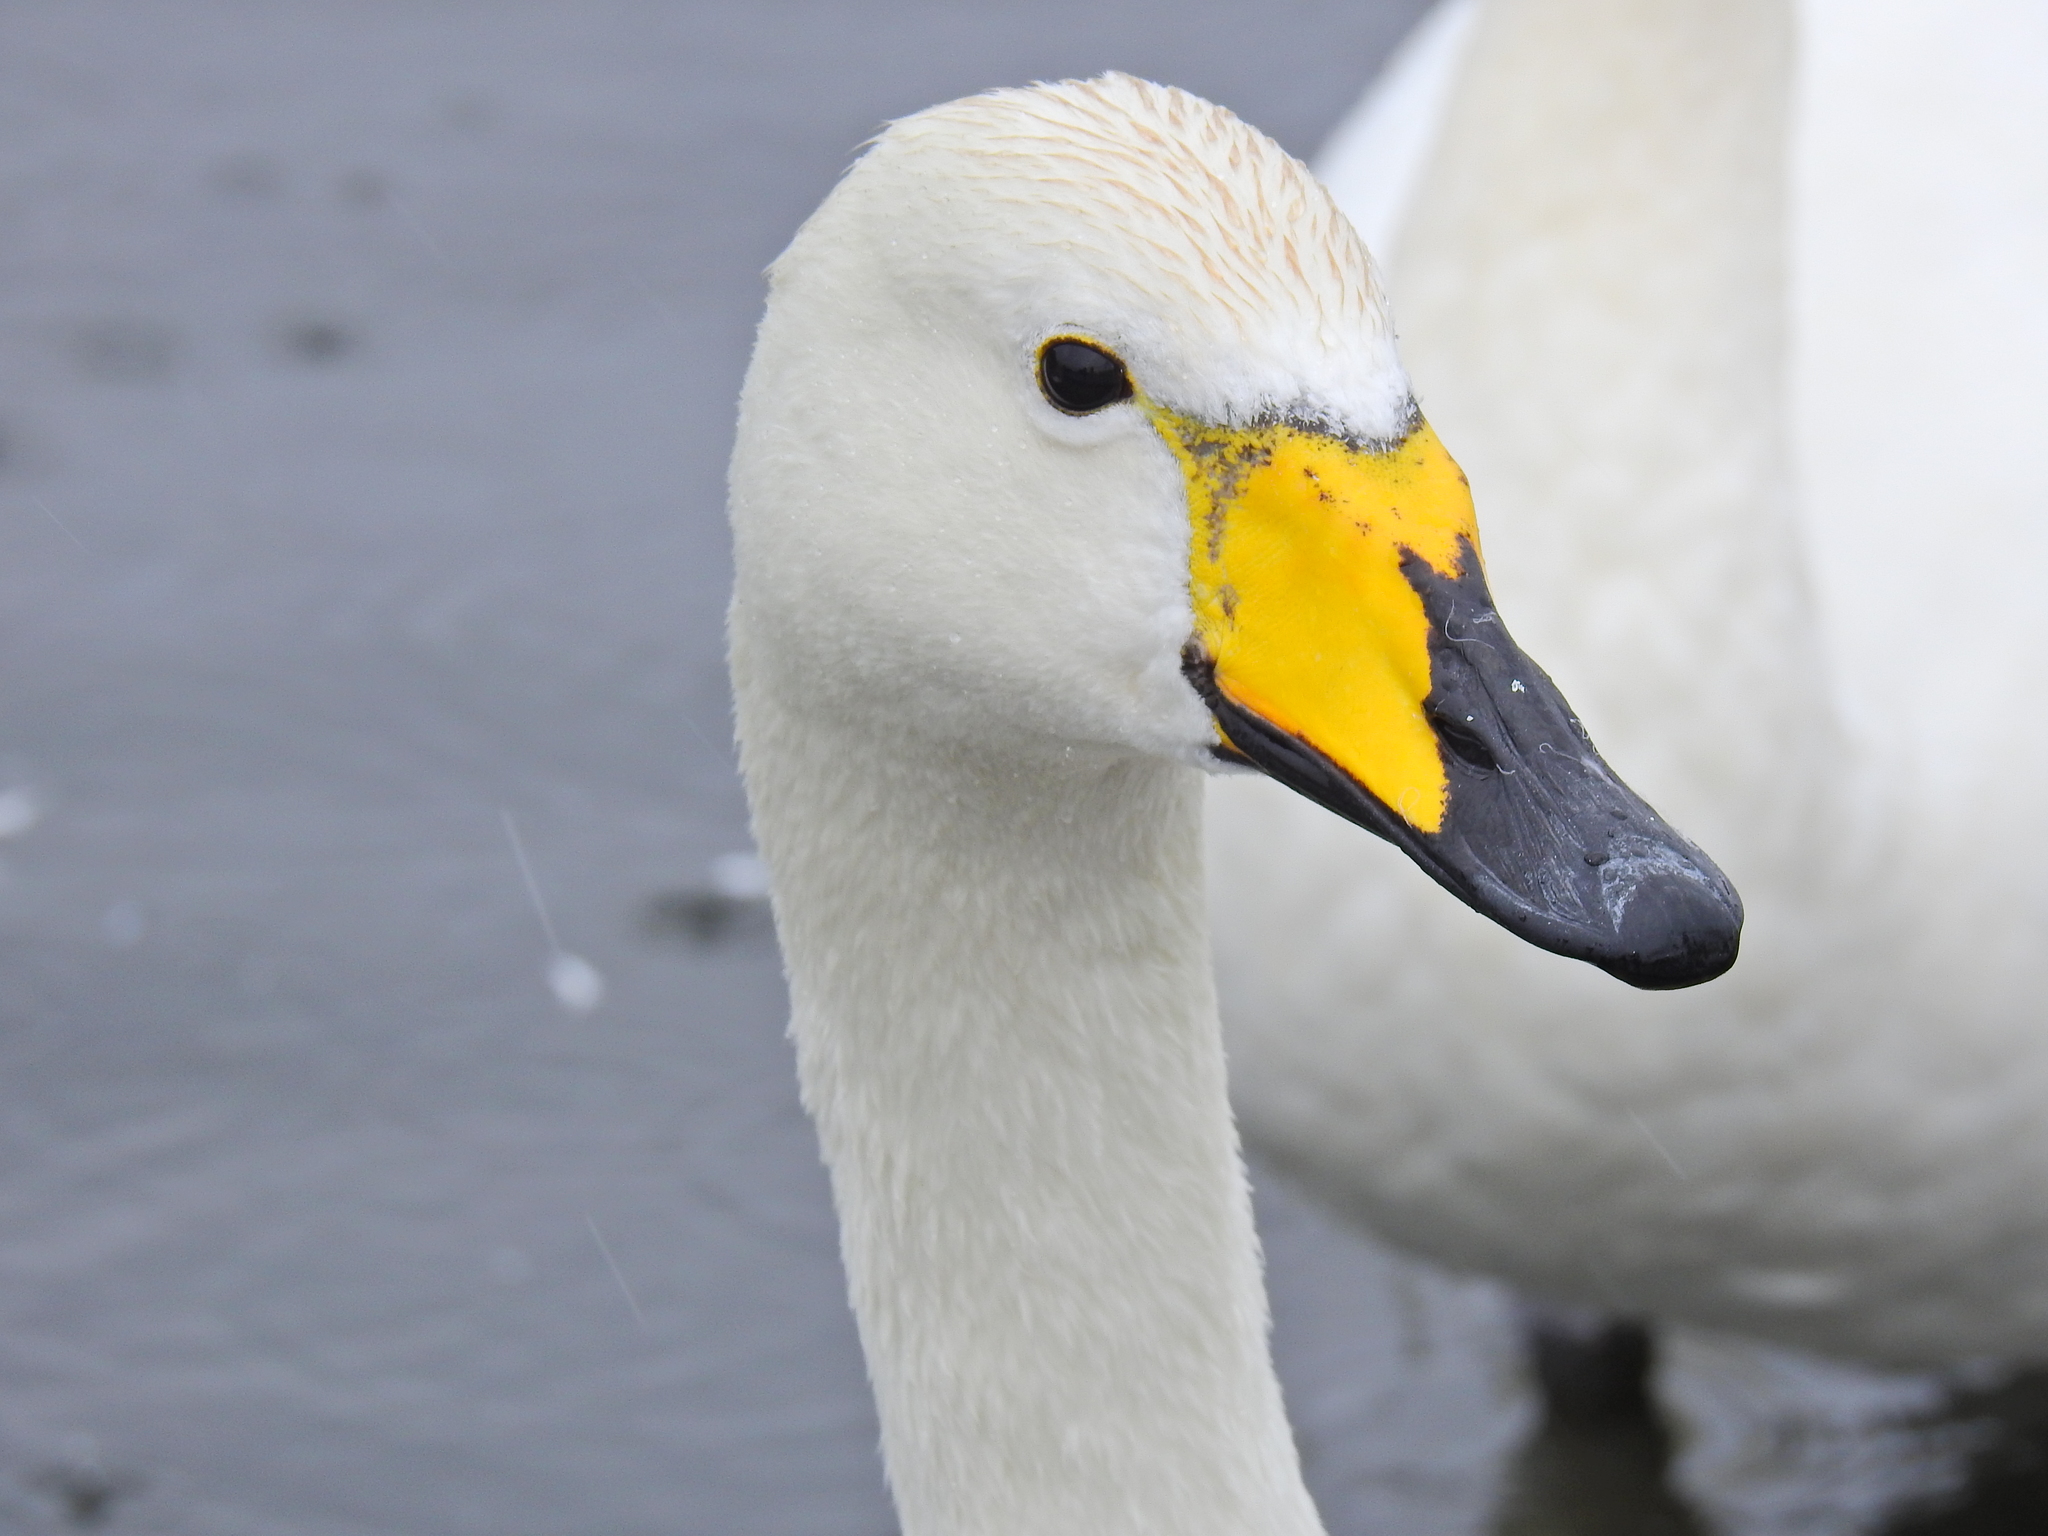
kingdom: Animalia
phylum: Chordata
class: Aves
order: Anseriformes
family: Anatidae
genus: Cygnus
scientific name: Cygnus cygnus
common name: Whooper swan
